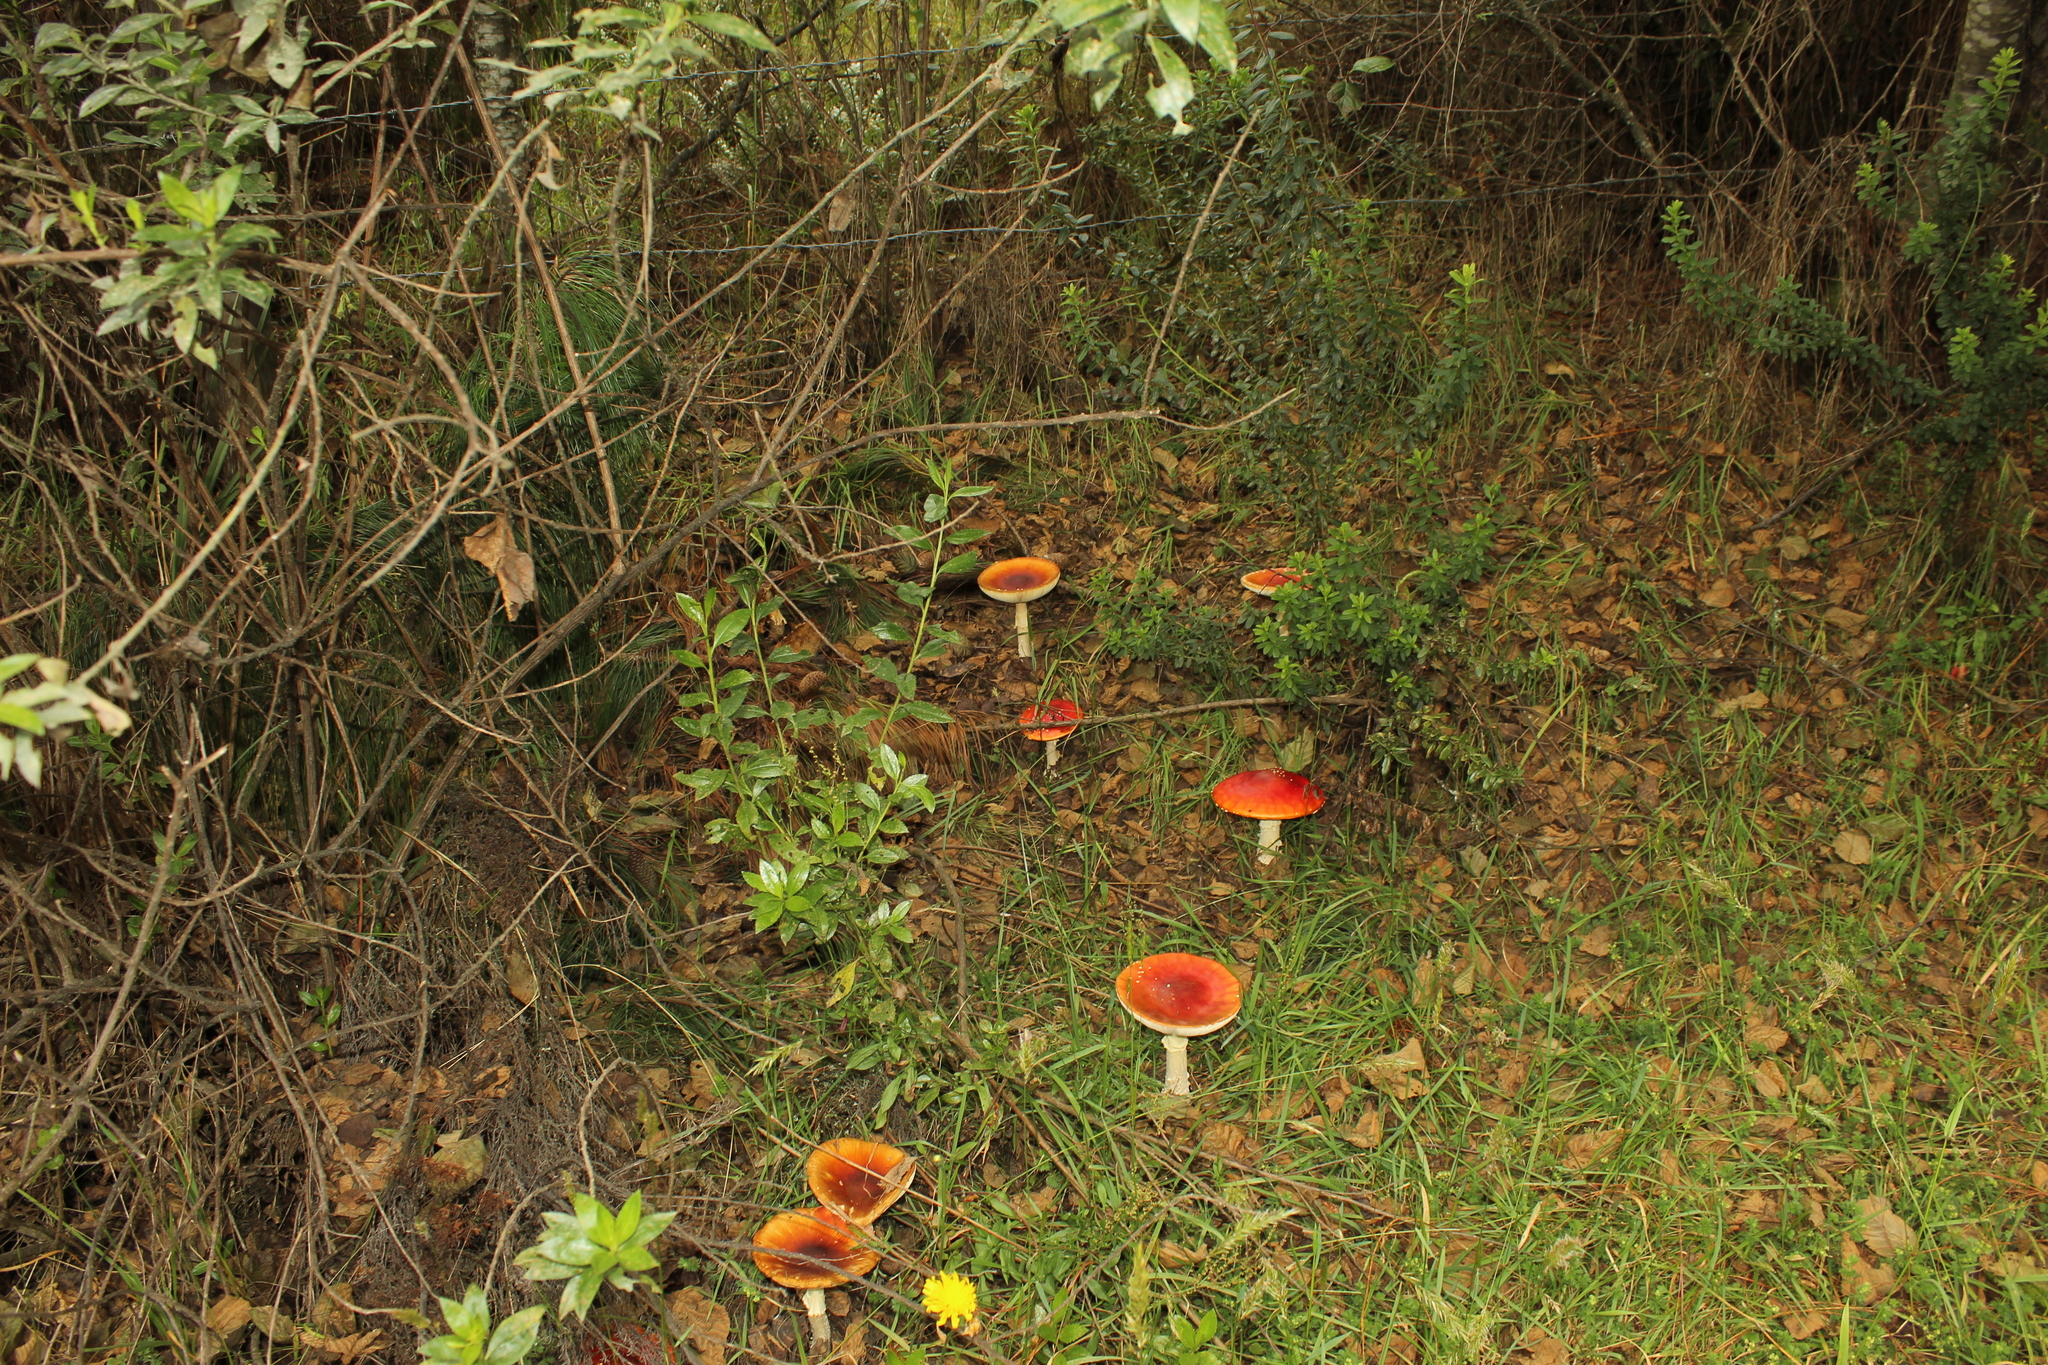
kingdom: Fungi
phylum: Basidiomycota
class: Agaricomycetes
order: Agaricales
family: Amanitaceae
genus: Amanita
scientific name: Amanita muscaria
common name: Fly agaric
